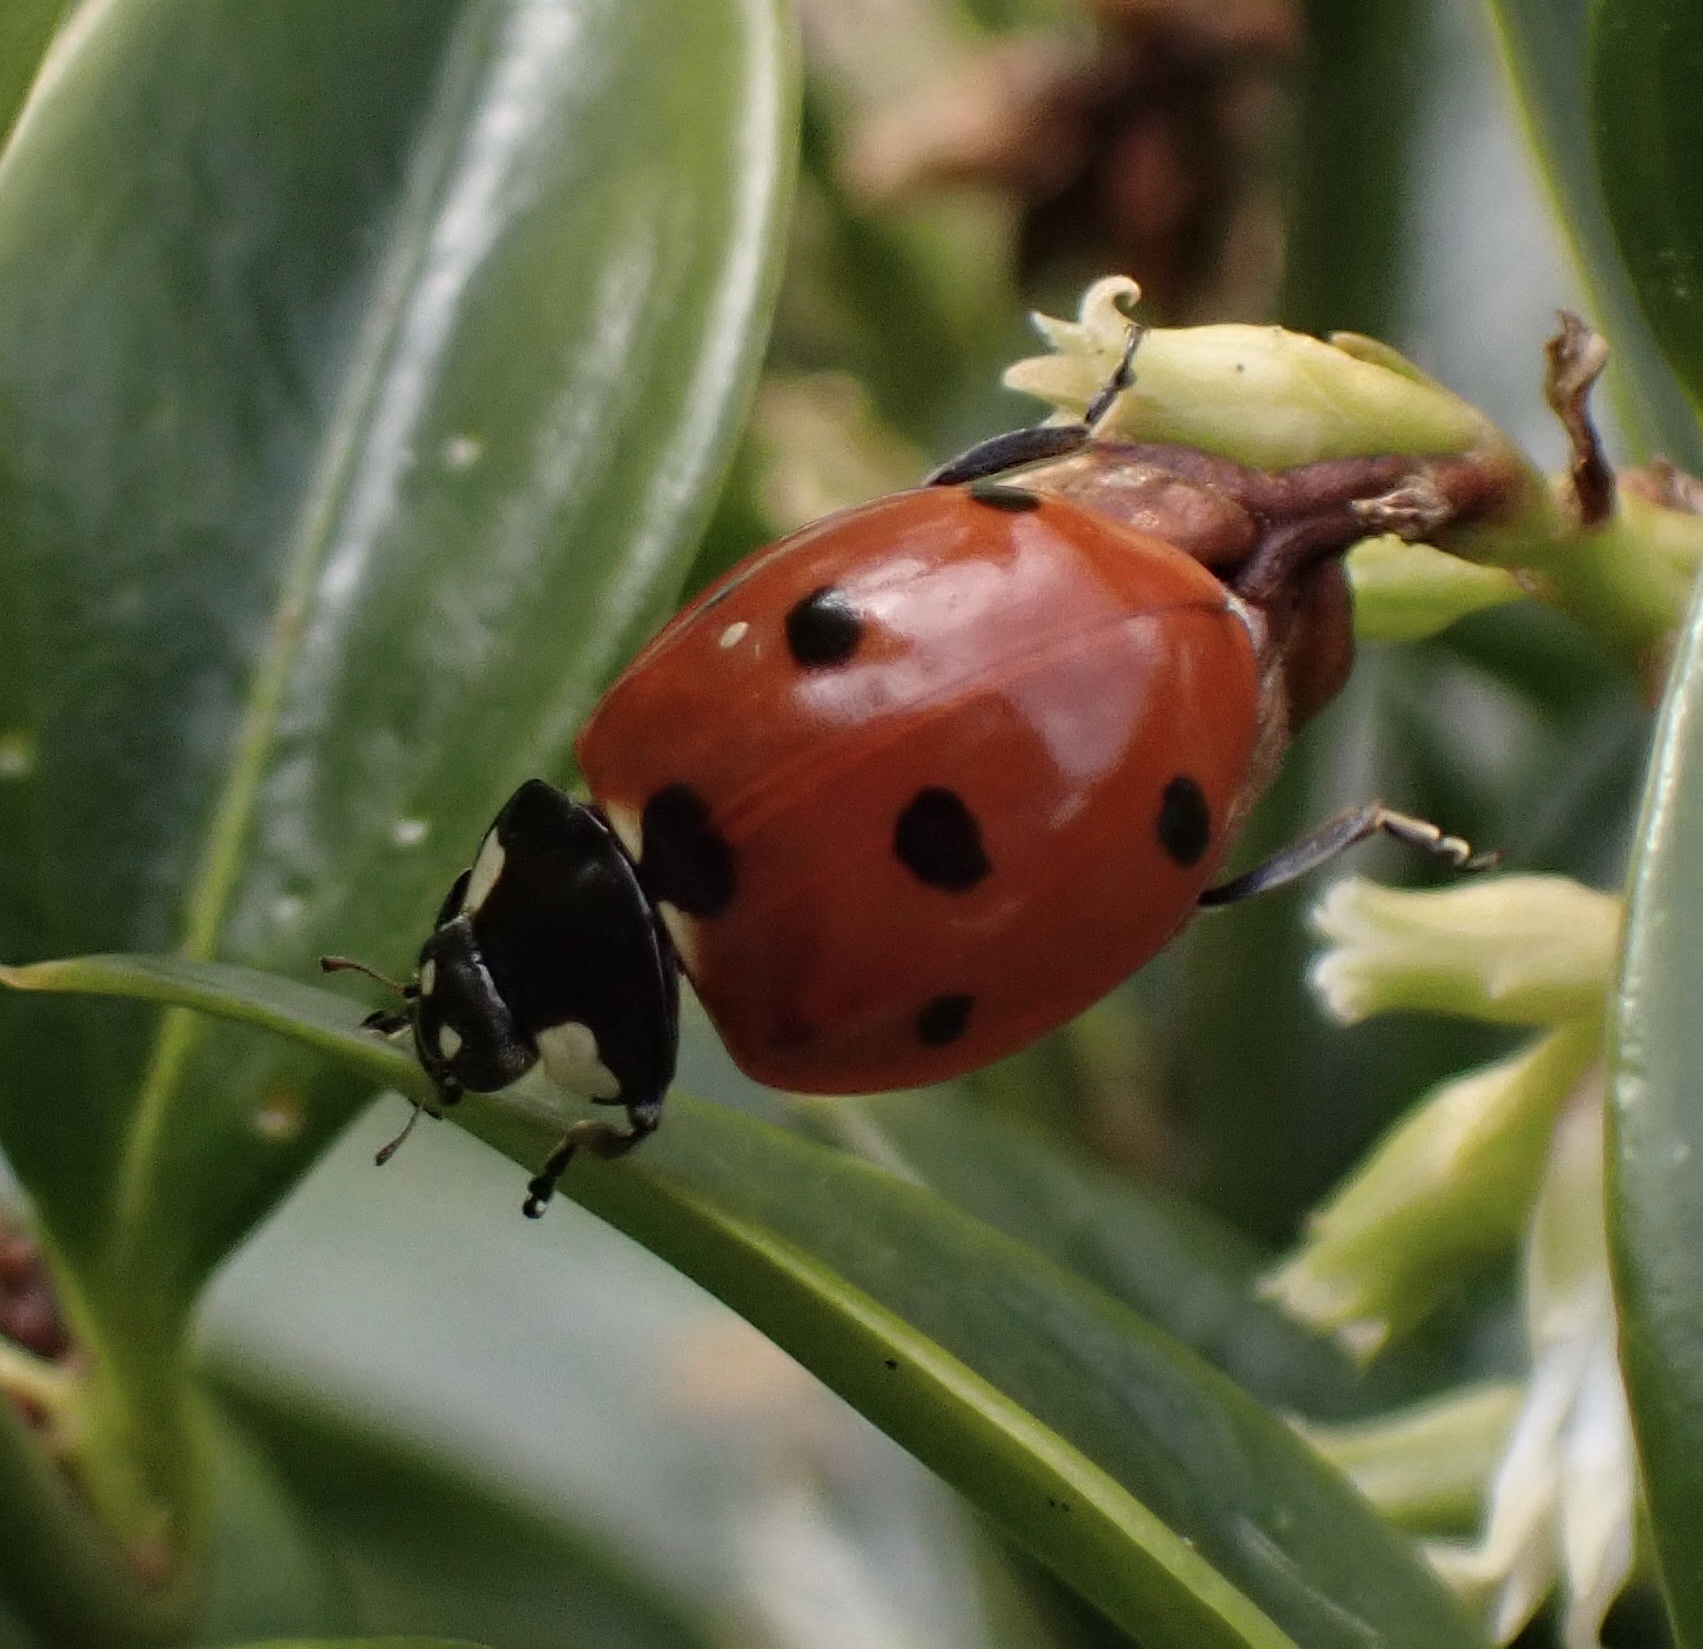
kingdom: Animalia
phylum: Arthropoda
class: Insecta
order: Coleoptera
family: Coccinellidae
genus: Coccinella
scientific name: Coccinella septempunctata
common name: Sevenspotted lady beetle
